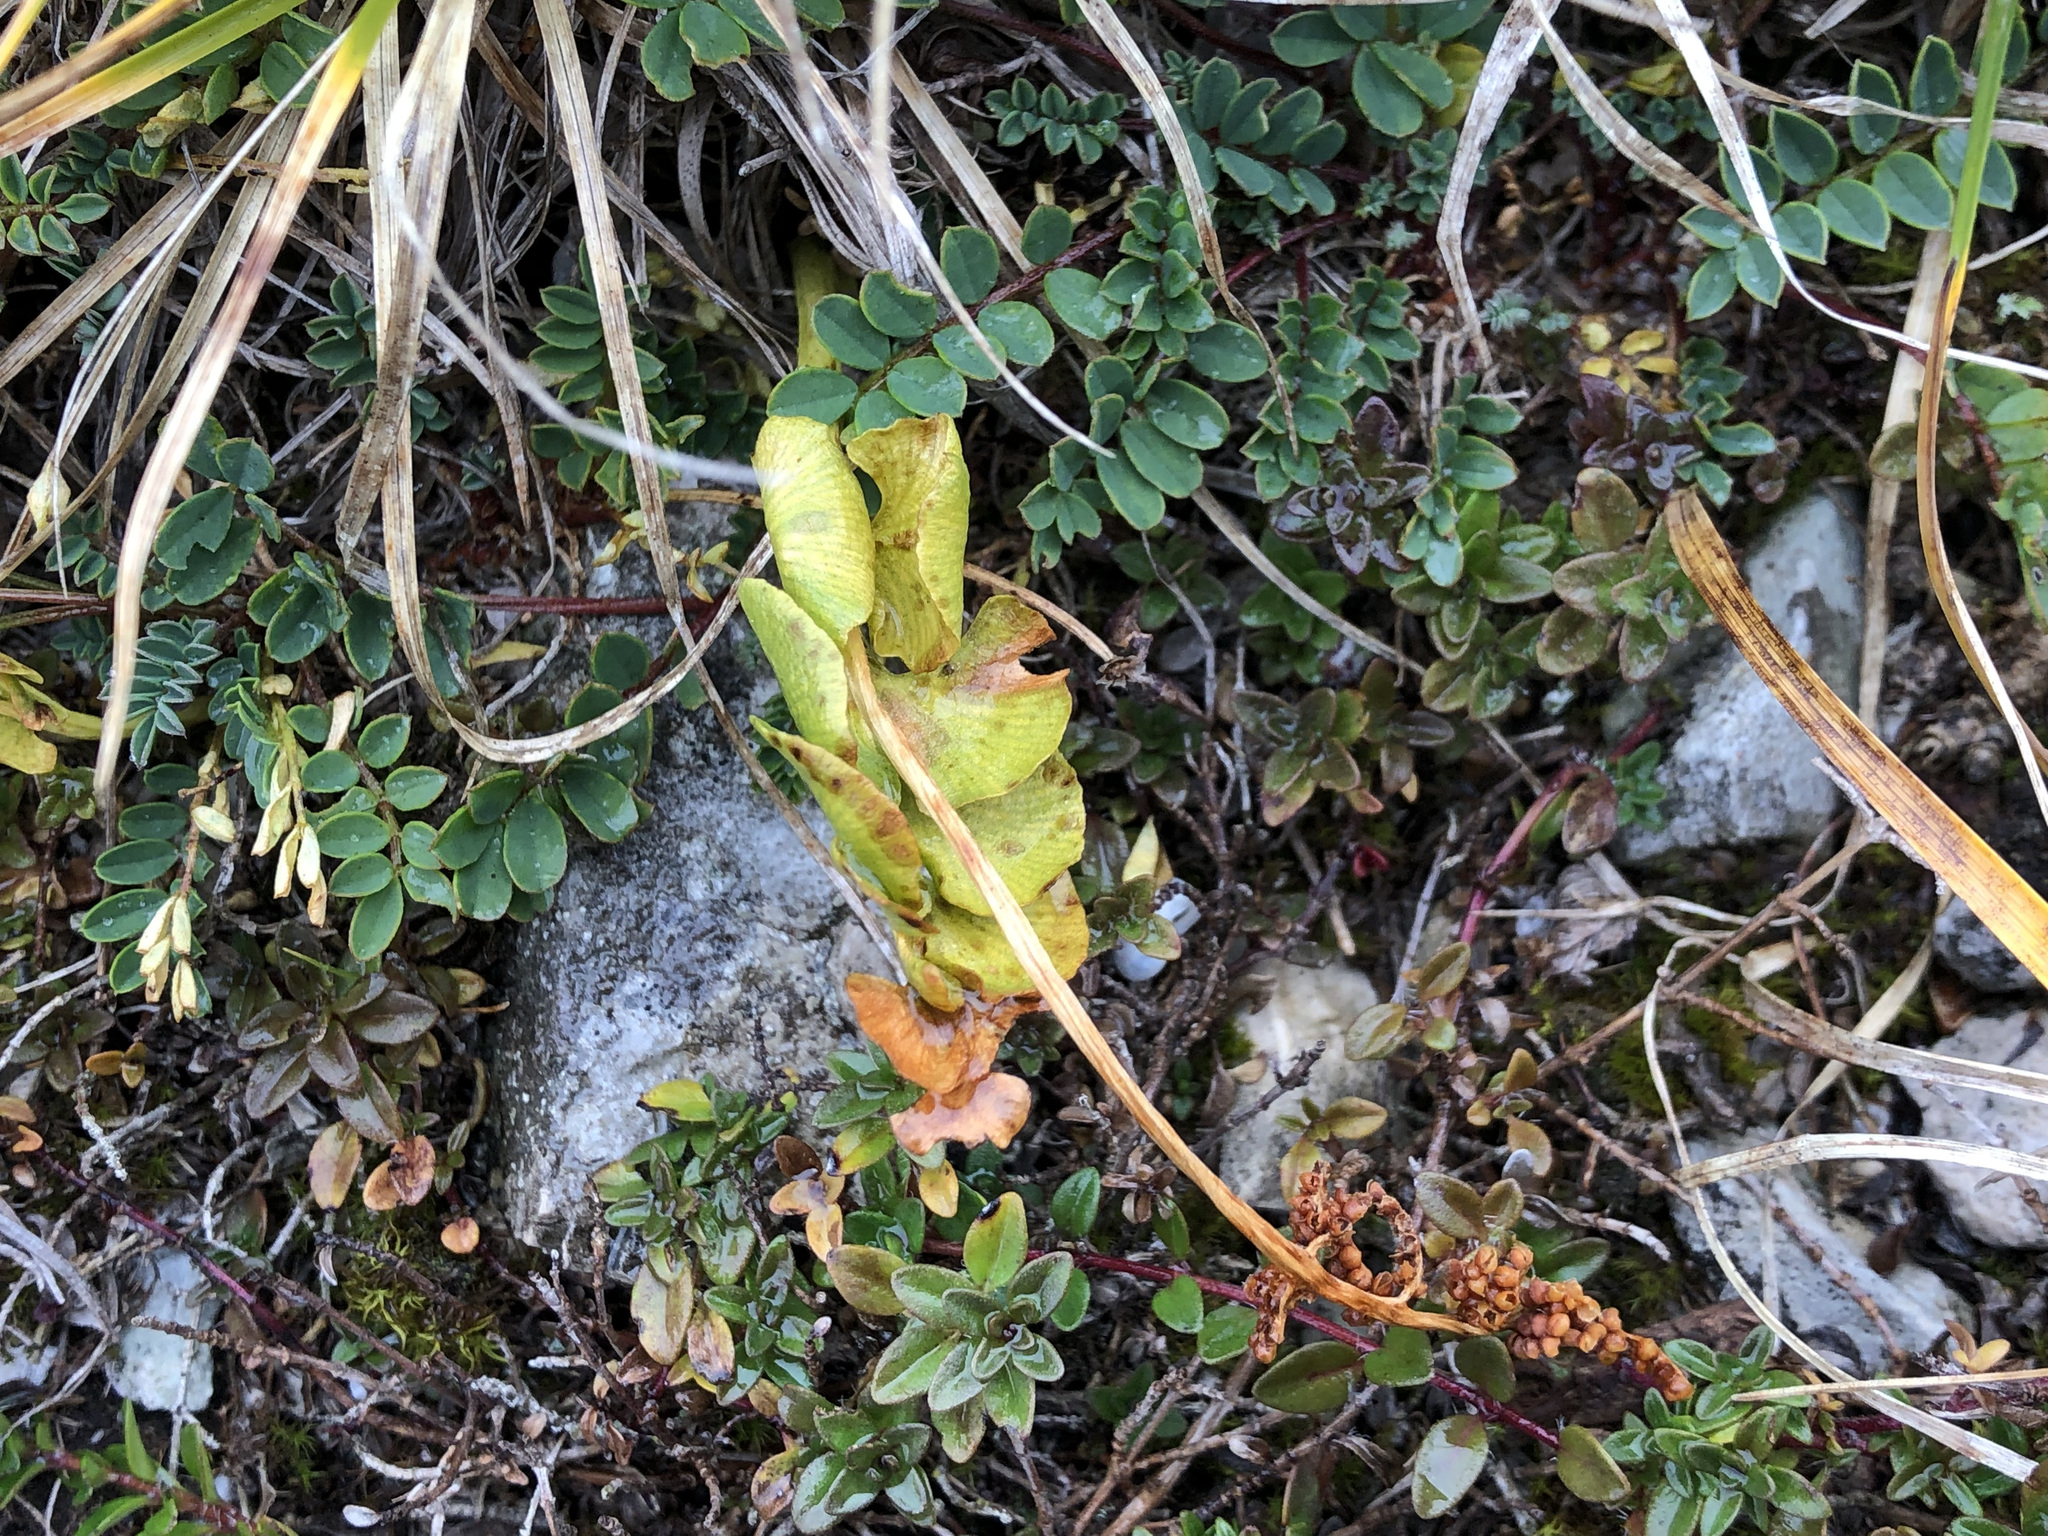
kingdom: Plantae
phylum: Tracheophyta
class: Polypodiopsida
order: Ophioglossales
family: Ophioglossaceae
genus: Botrychium
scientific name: Botrychium lunaria
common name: Moonwort
